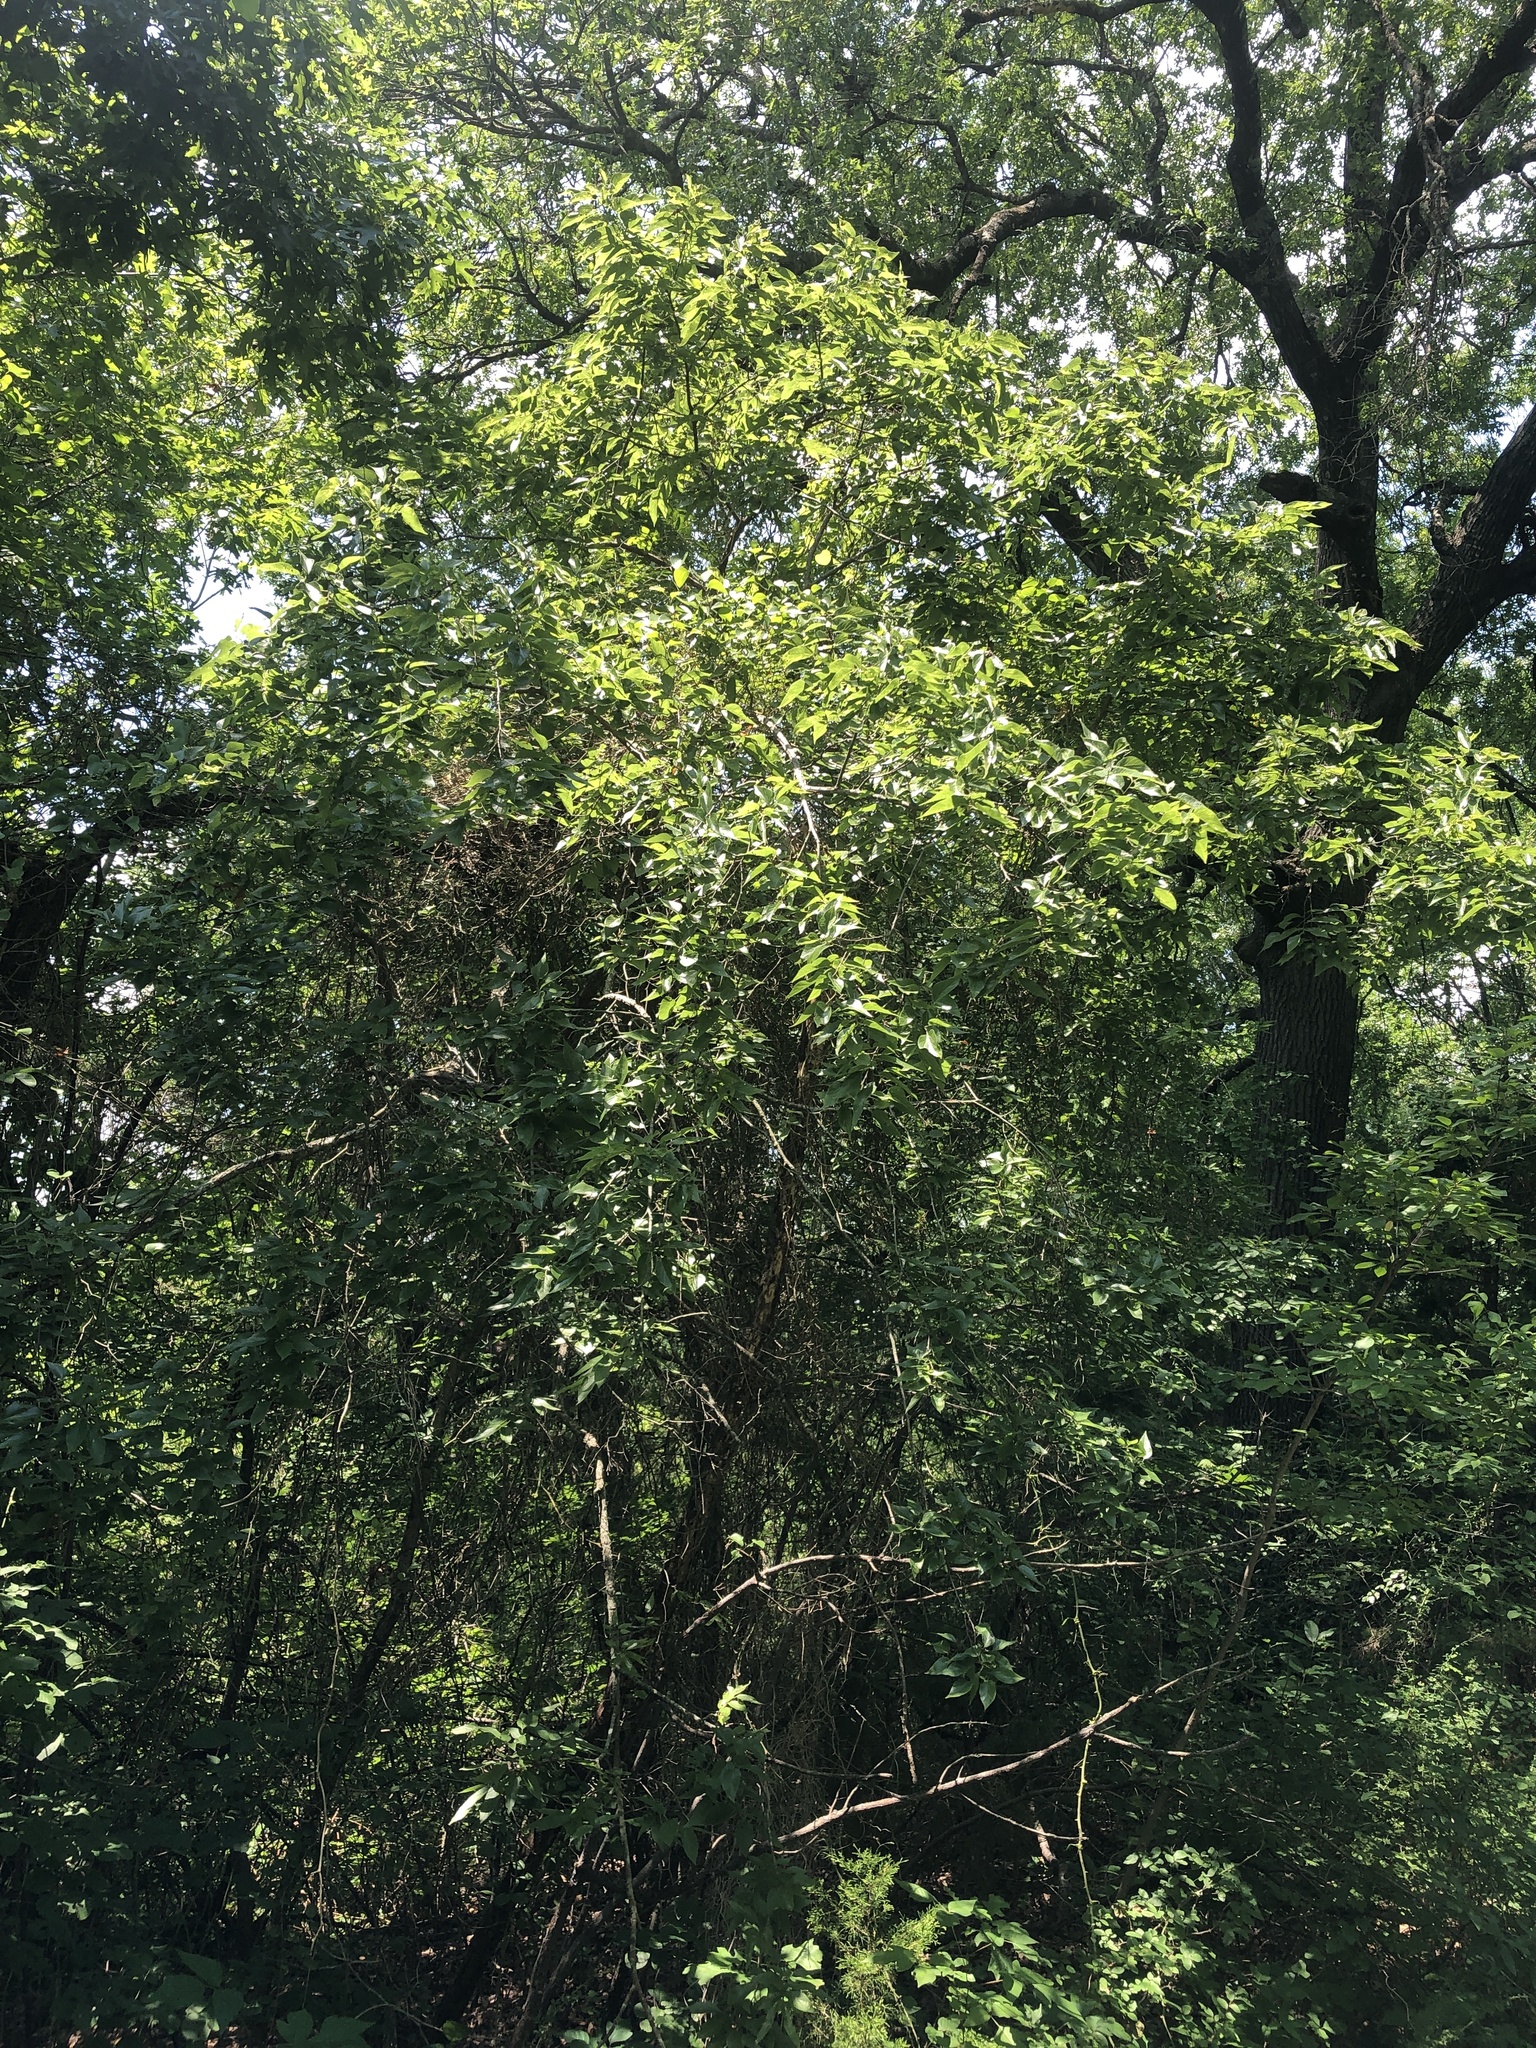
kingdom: Plantae
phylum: Tracheophyta
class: Magnoliopsida
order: Rosales
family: Cannabaceae
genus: Celtis
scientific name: Celtis laevigata
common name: Sugarberry
